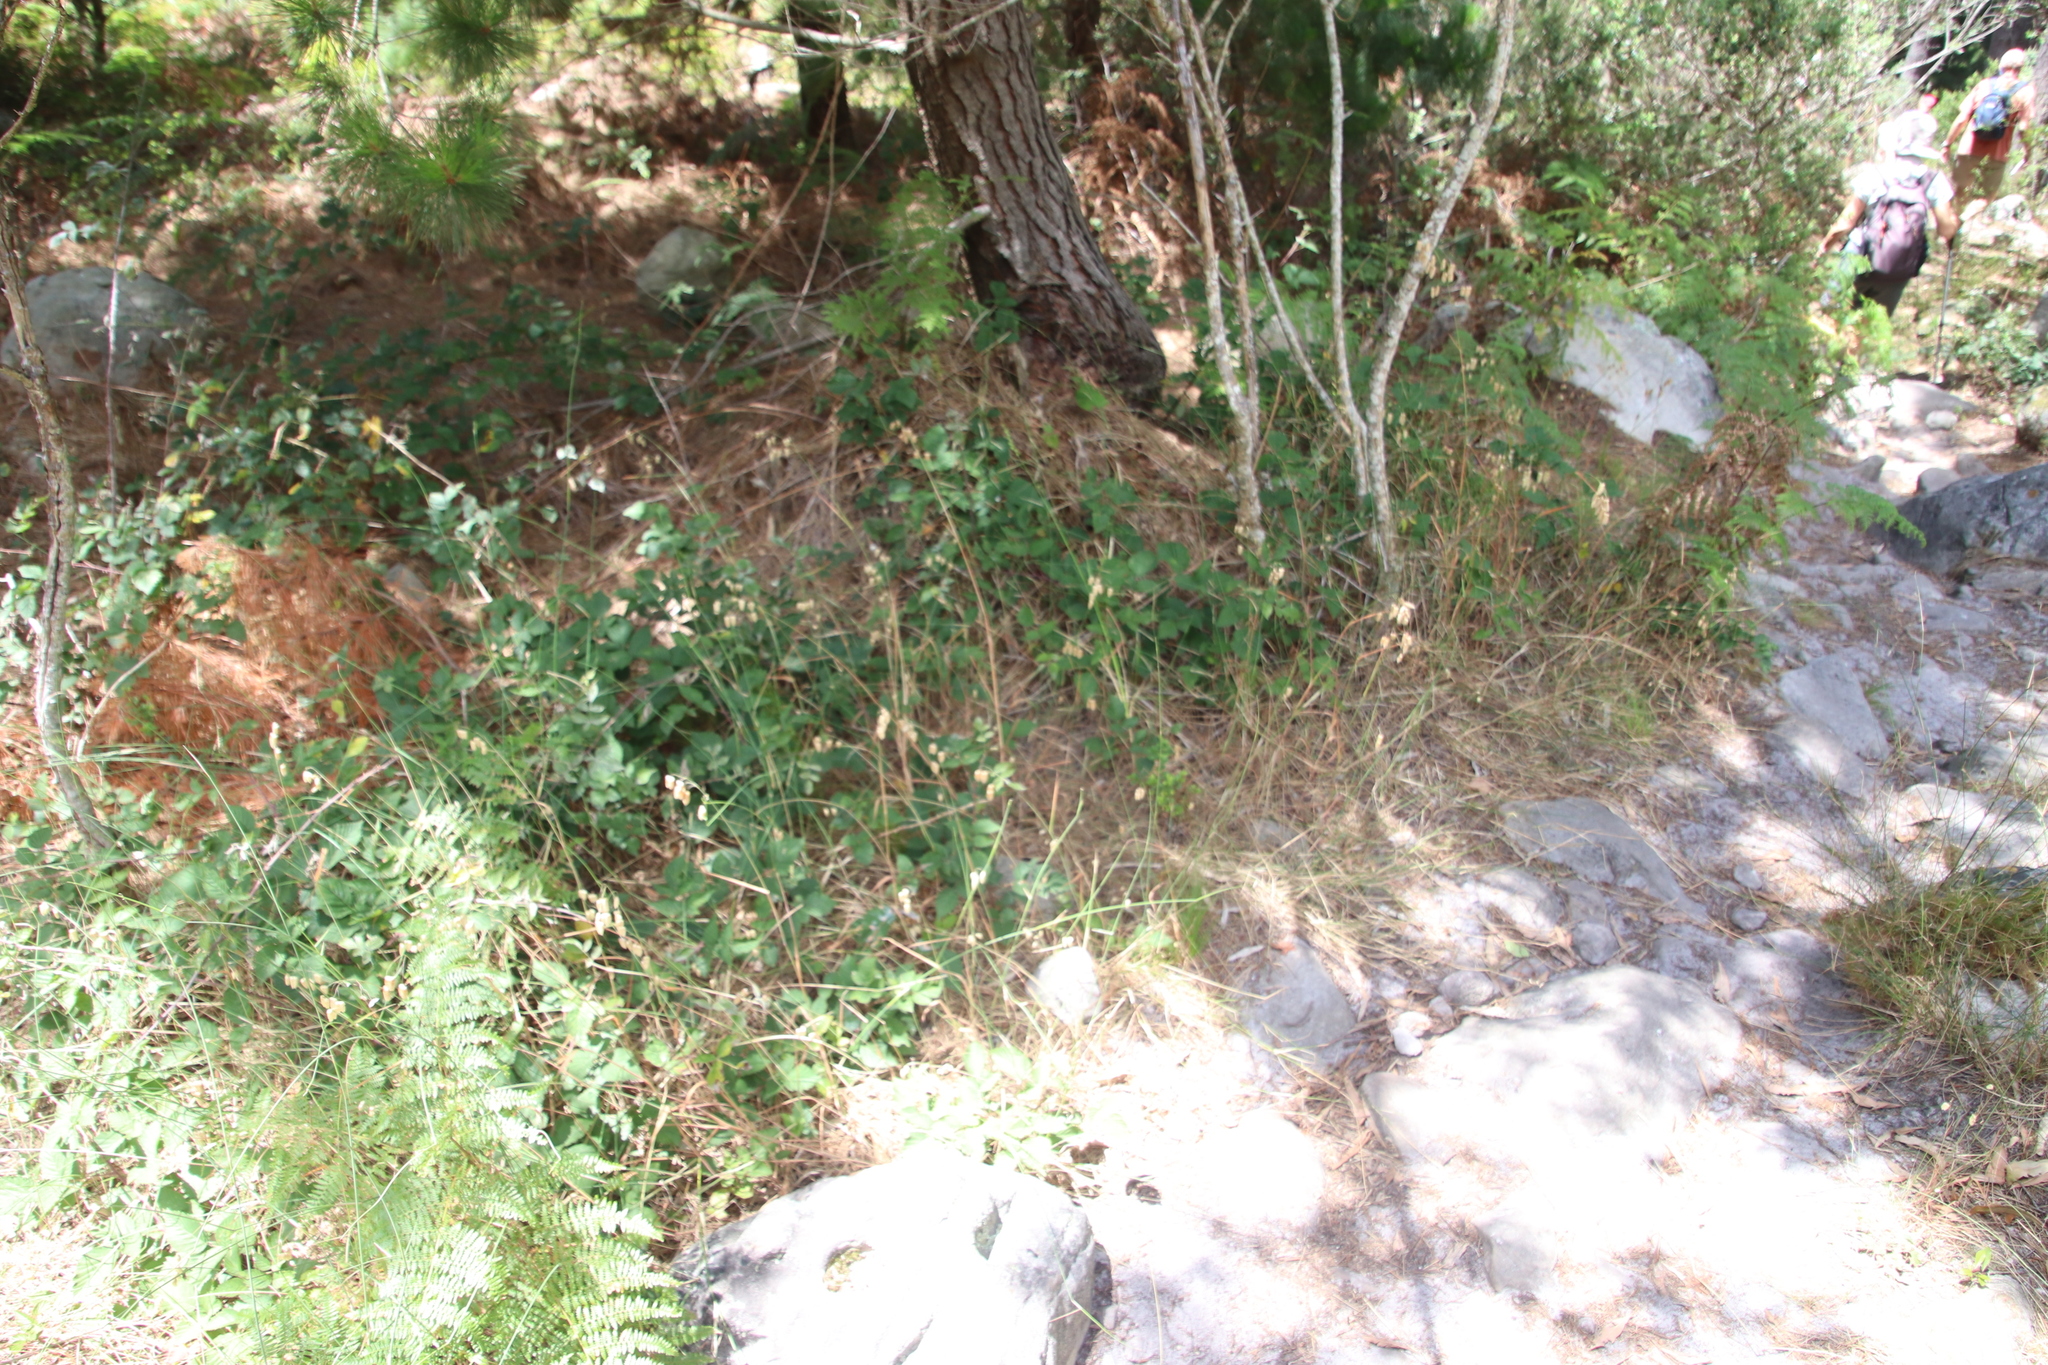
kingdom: Plantae
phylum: Tracheophyta
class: Liliopsida
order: Poales
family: Poaceae
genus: Briza
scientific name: Briza maxima
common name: Big quakinggrass
